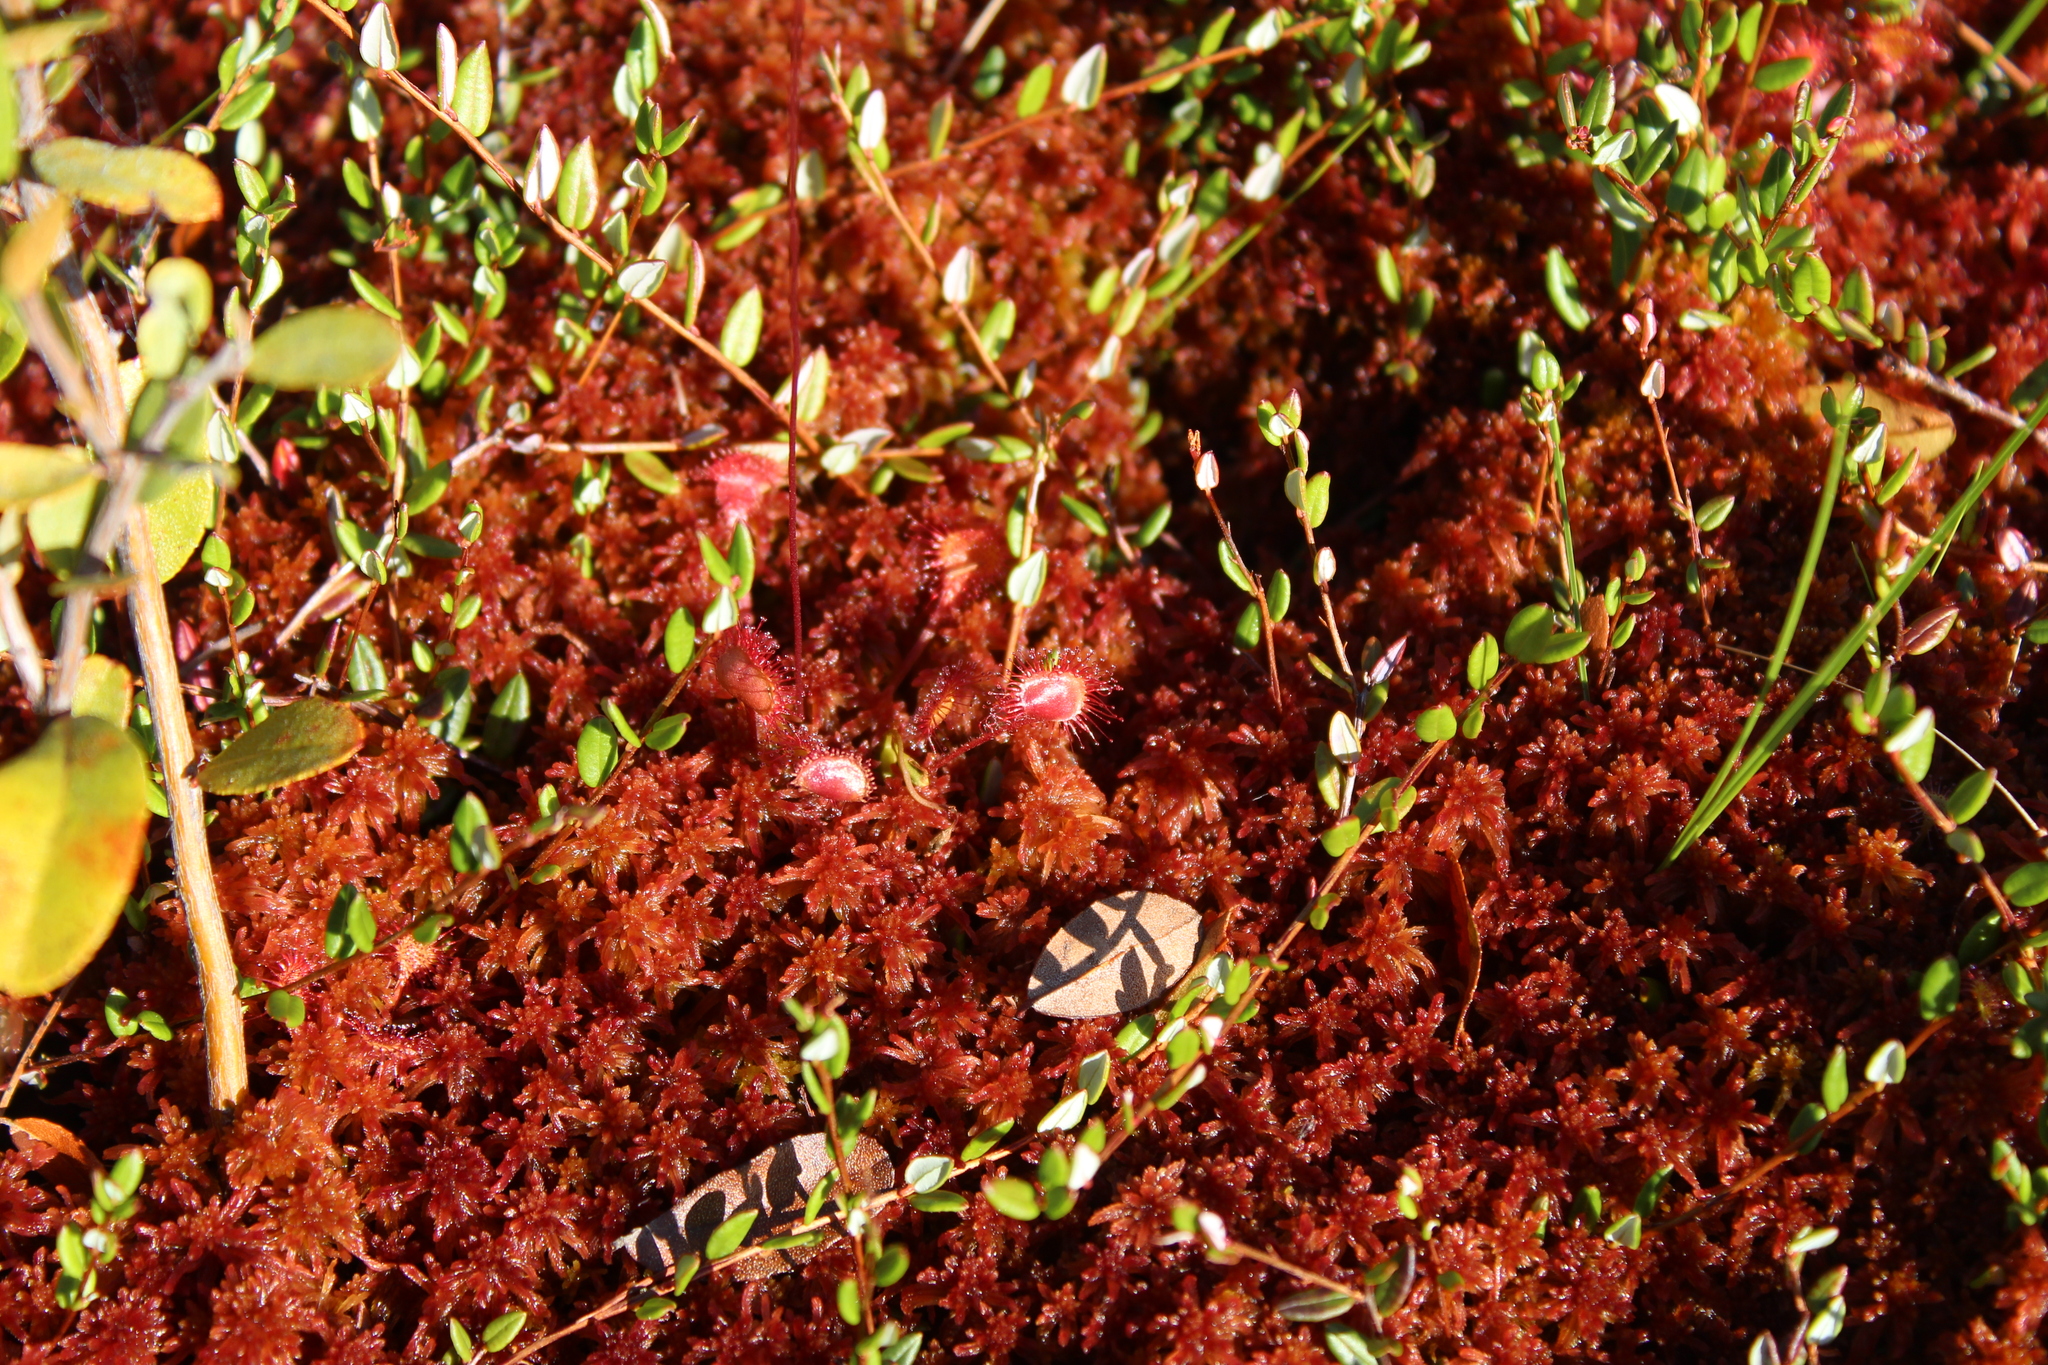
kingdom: Plantae
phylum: Tracheophyta
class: Magnoliopsida
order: Ericales
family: Ericaceae
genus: Vaccinium
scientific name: Vaccinium oxycoccos
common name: Cranberry
